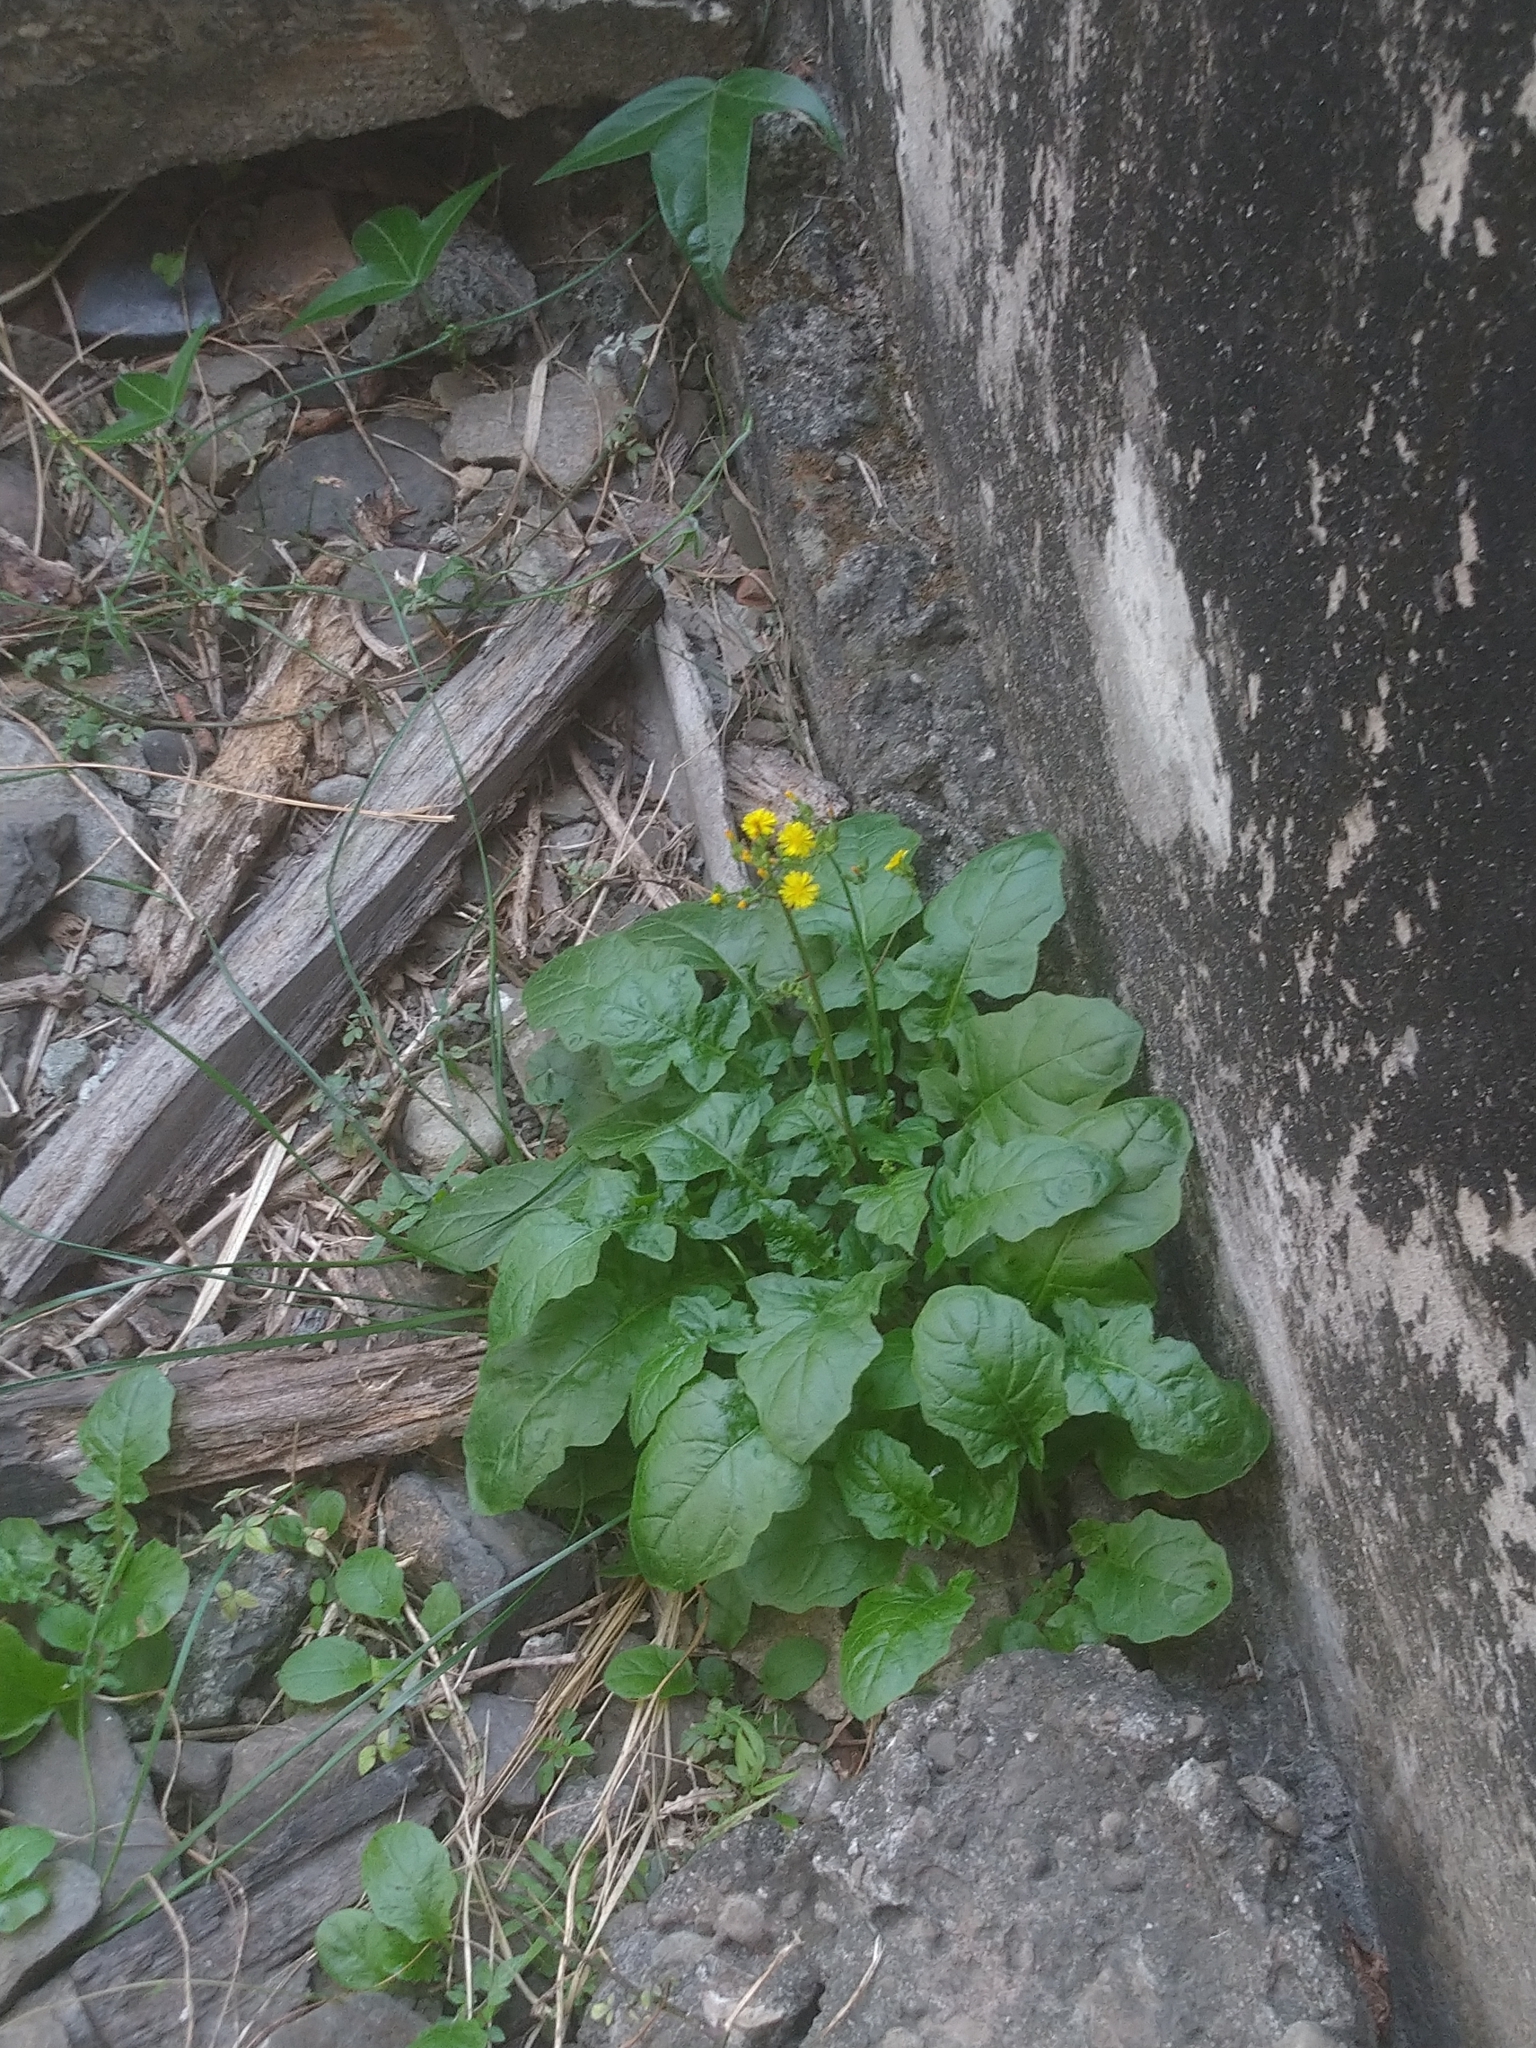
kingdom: Plantae
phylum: Tracheophyta
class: Magnoliopsida
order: Asterales
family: Asteraceae
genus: Youngia
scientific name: Youngia japonica
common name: Oriental false hawksbeard
